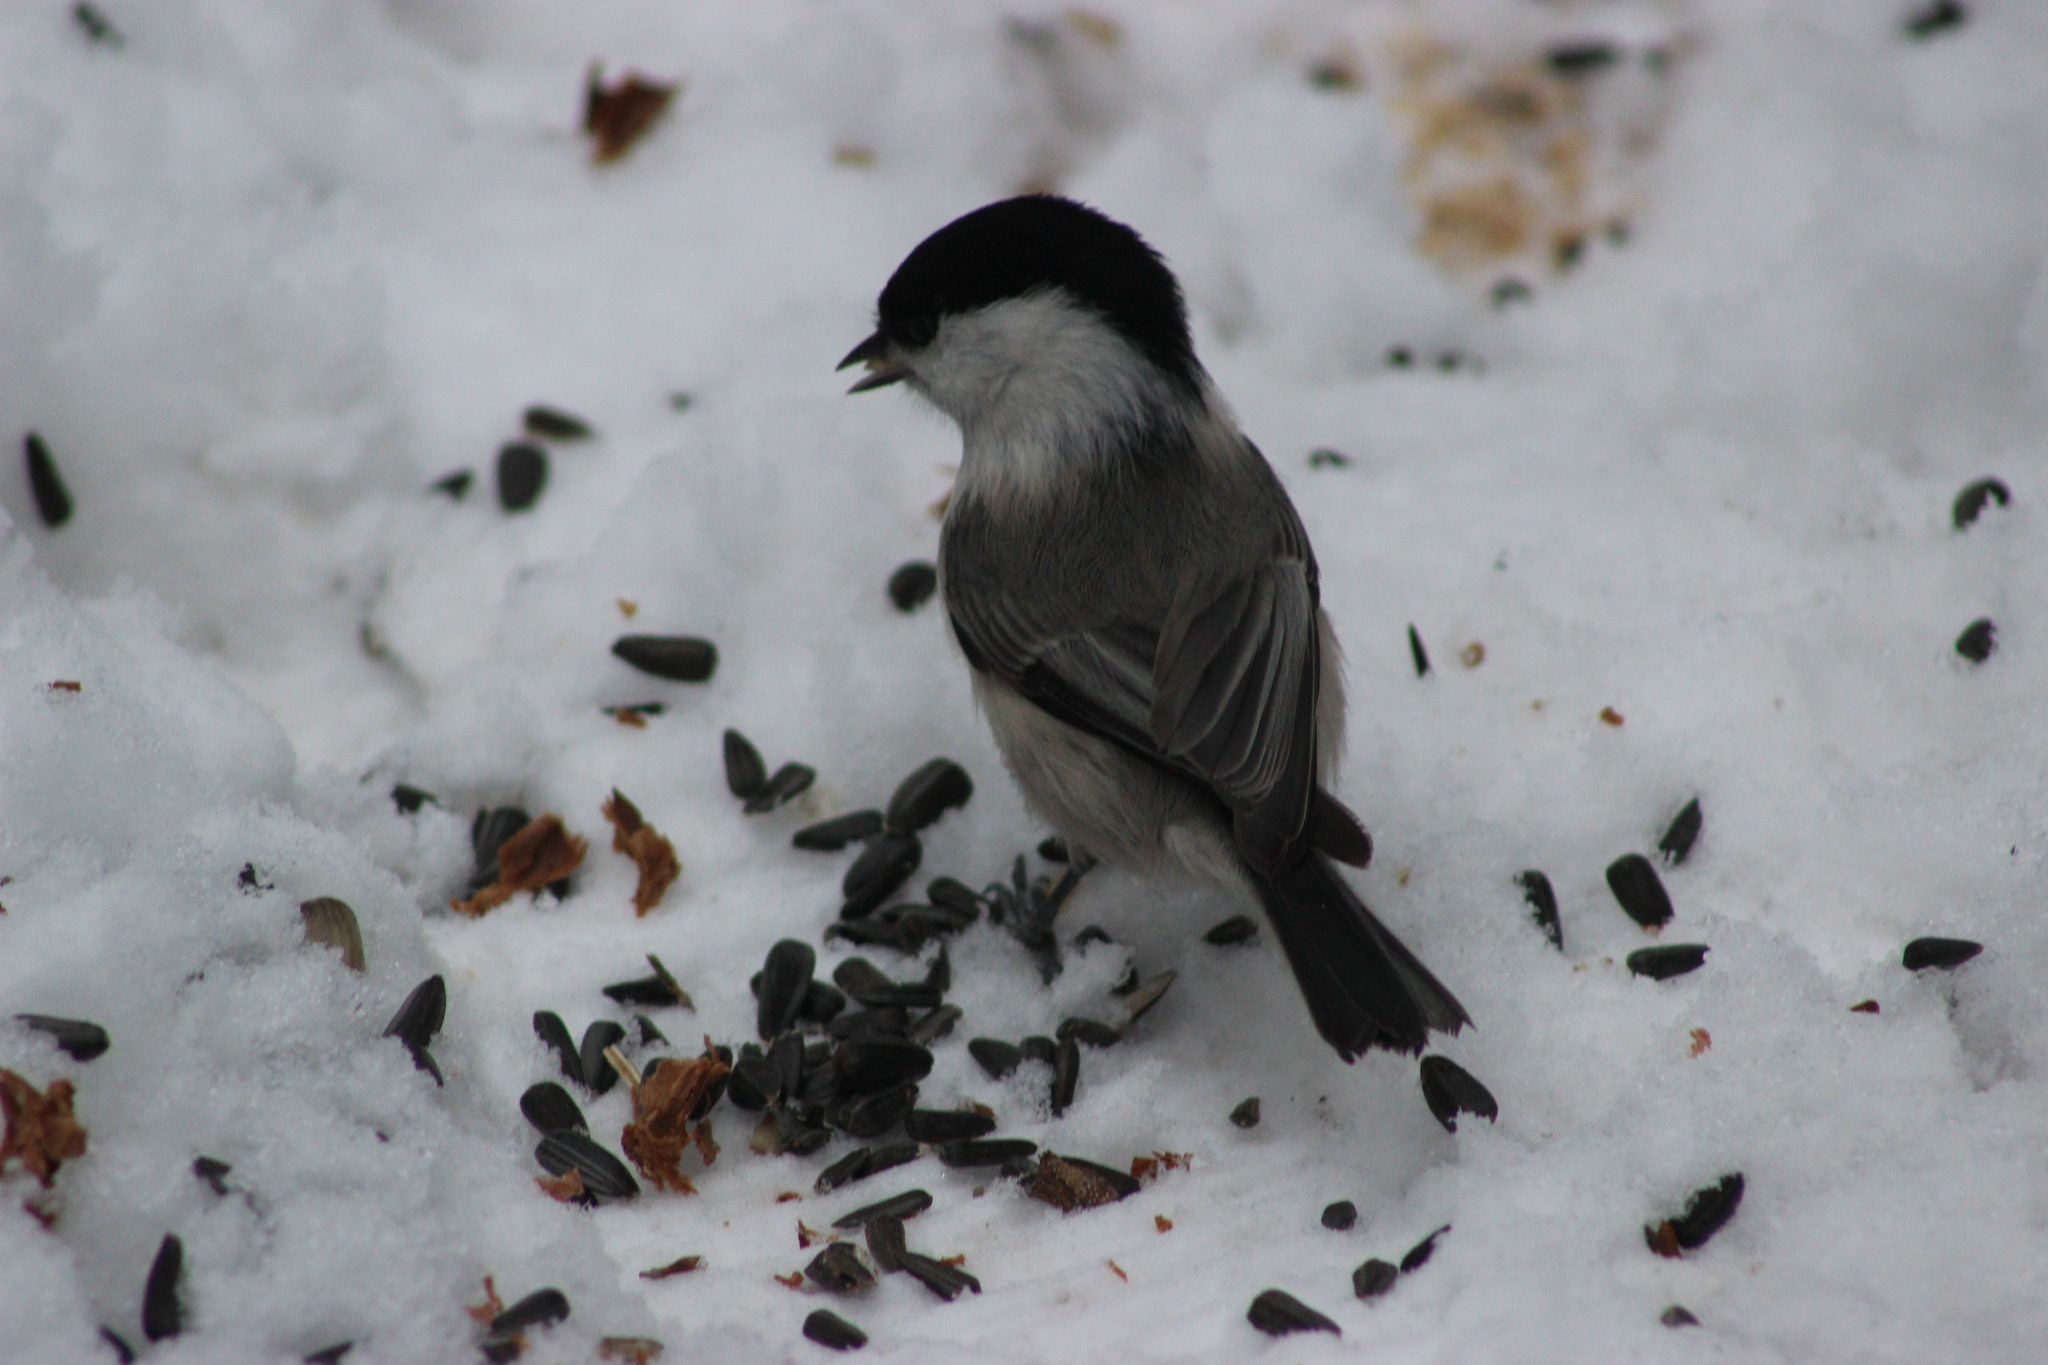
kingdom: Animalia
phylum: Chordata
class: Aves
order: Passeriformes
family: Paridae
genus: Poecile
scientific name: Poecile montanus
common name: Willow tit
